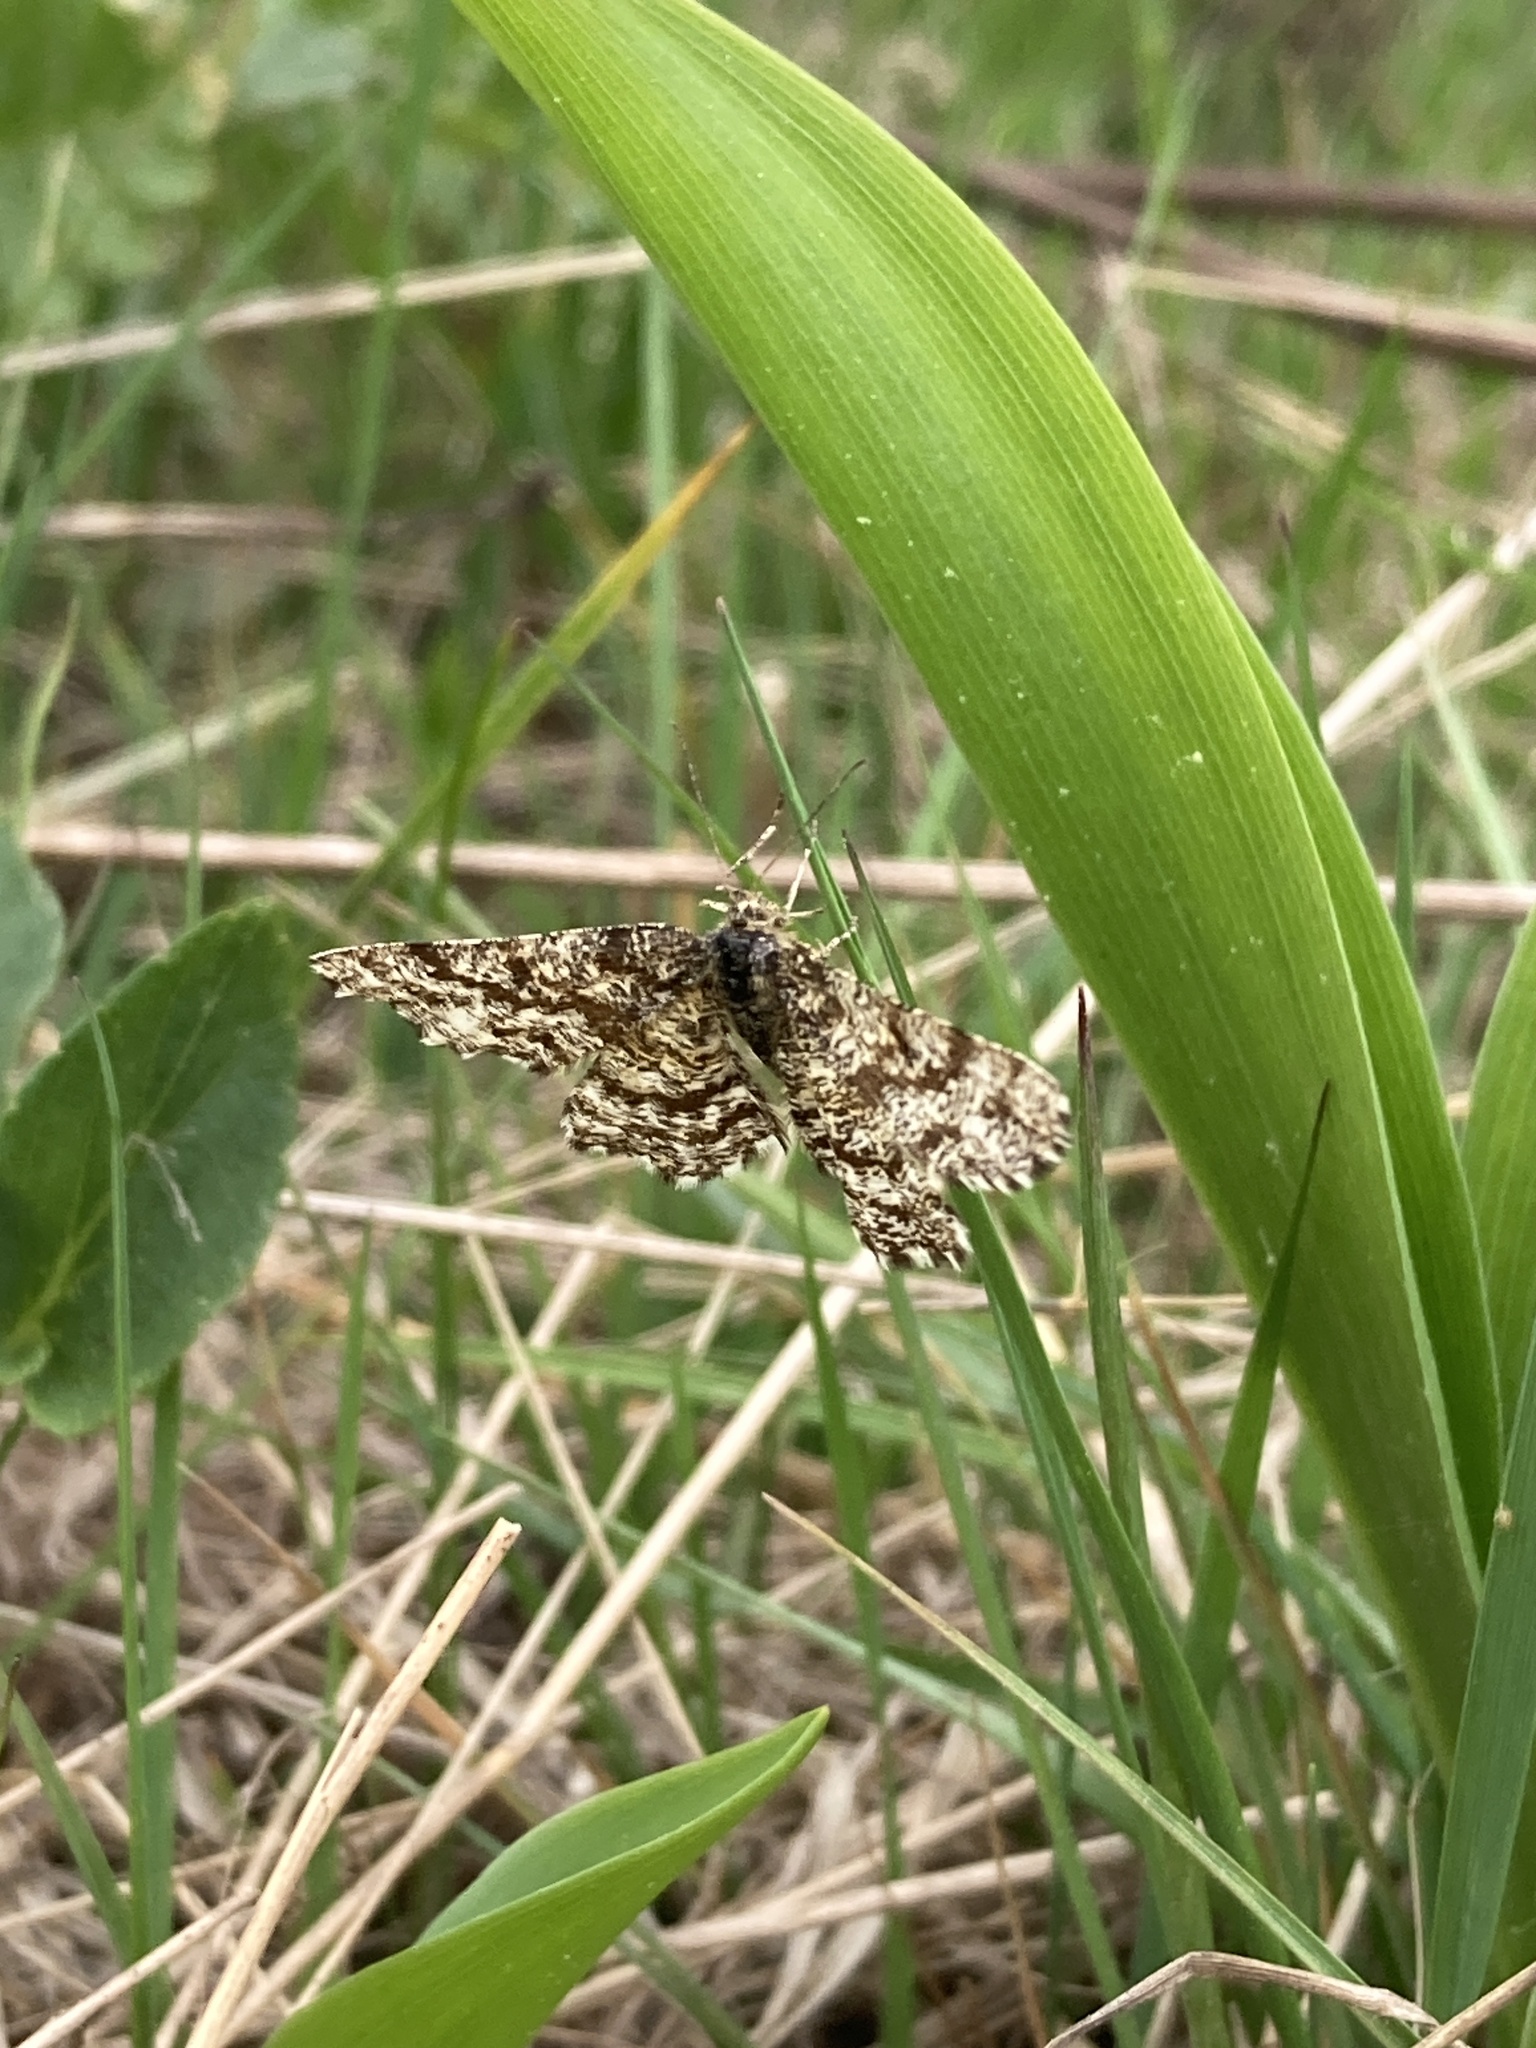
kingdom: Animalia
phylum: Arthropoda
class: Insecta
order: Lepidoptera
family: Geometridae
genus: Ematurga
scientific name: Ematurga atomaria
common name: Common heath
